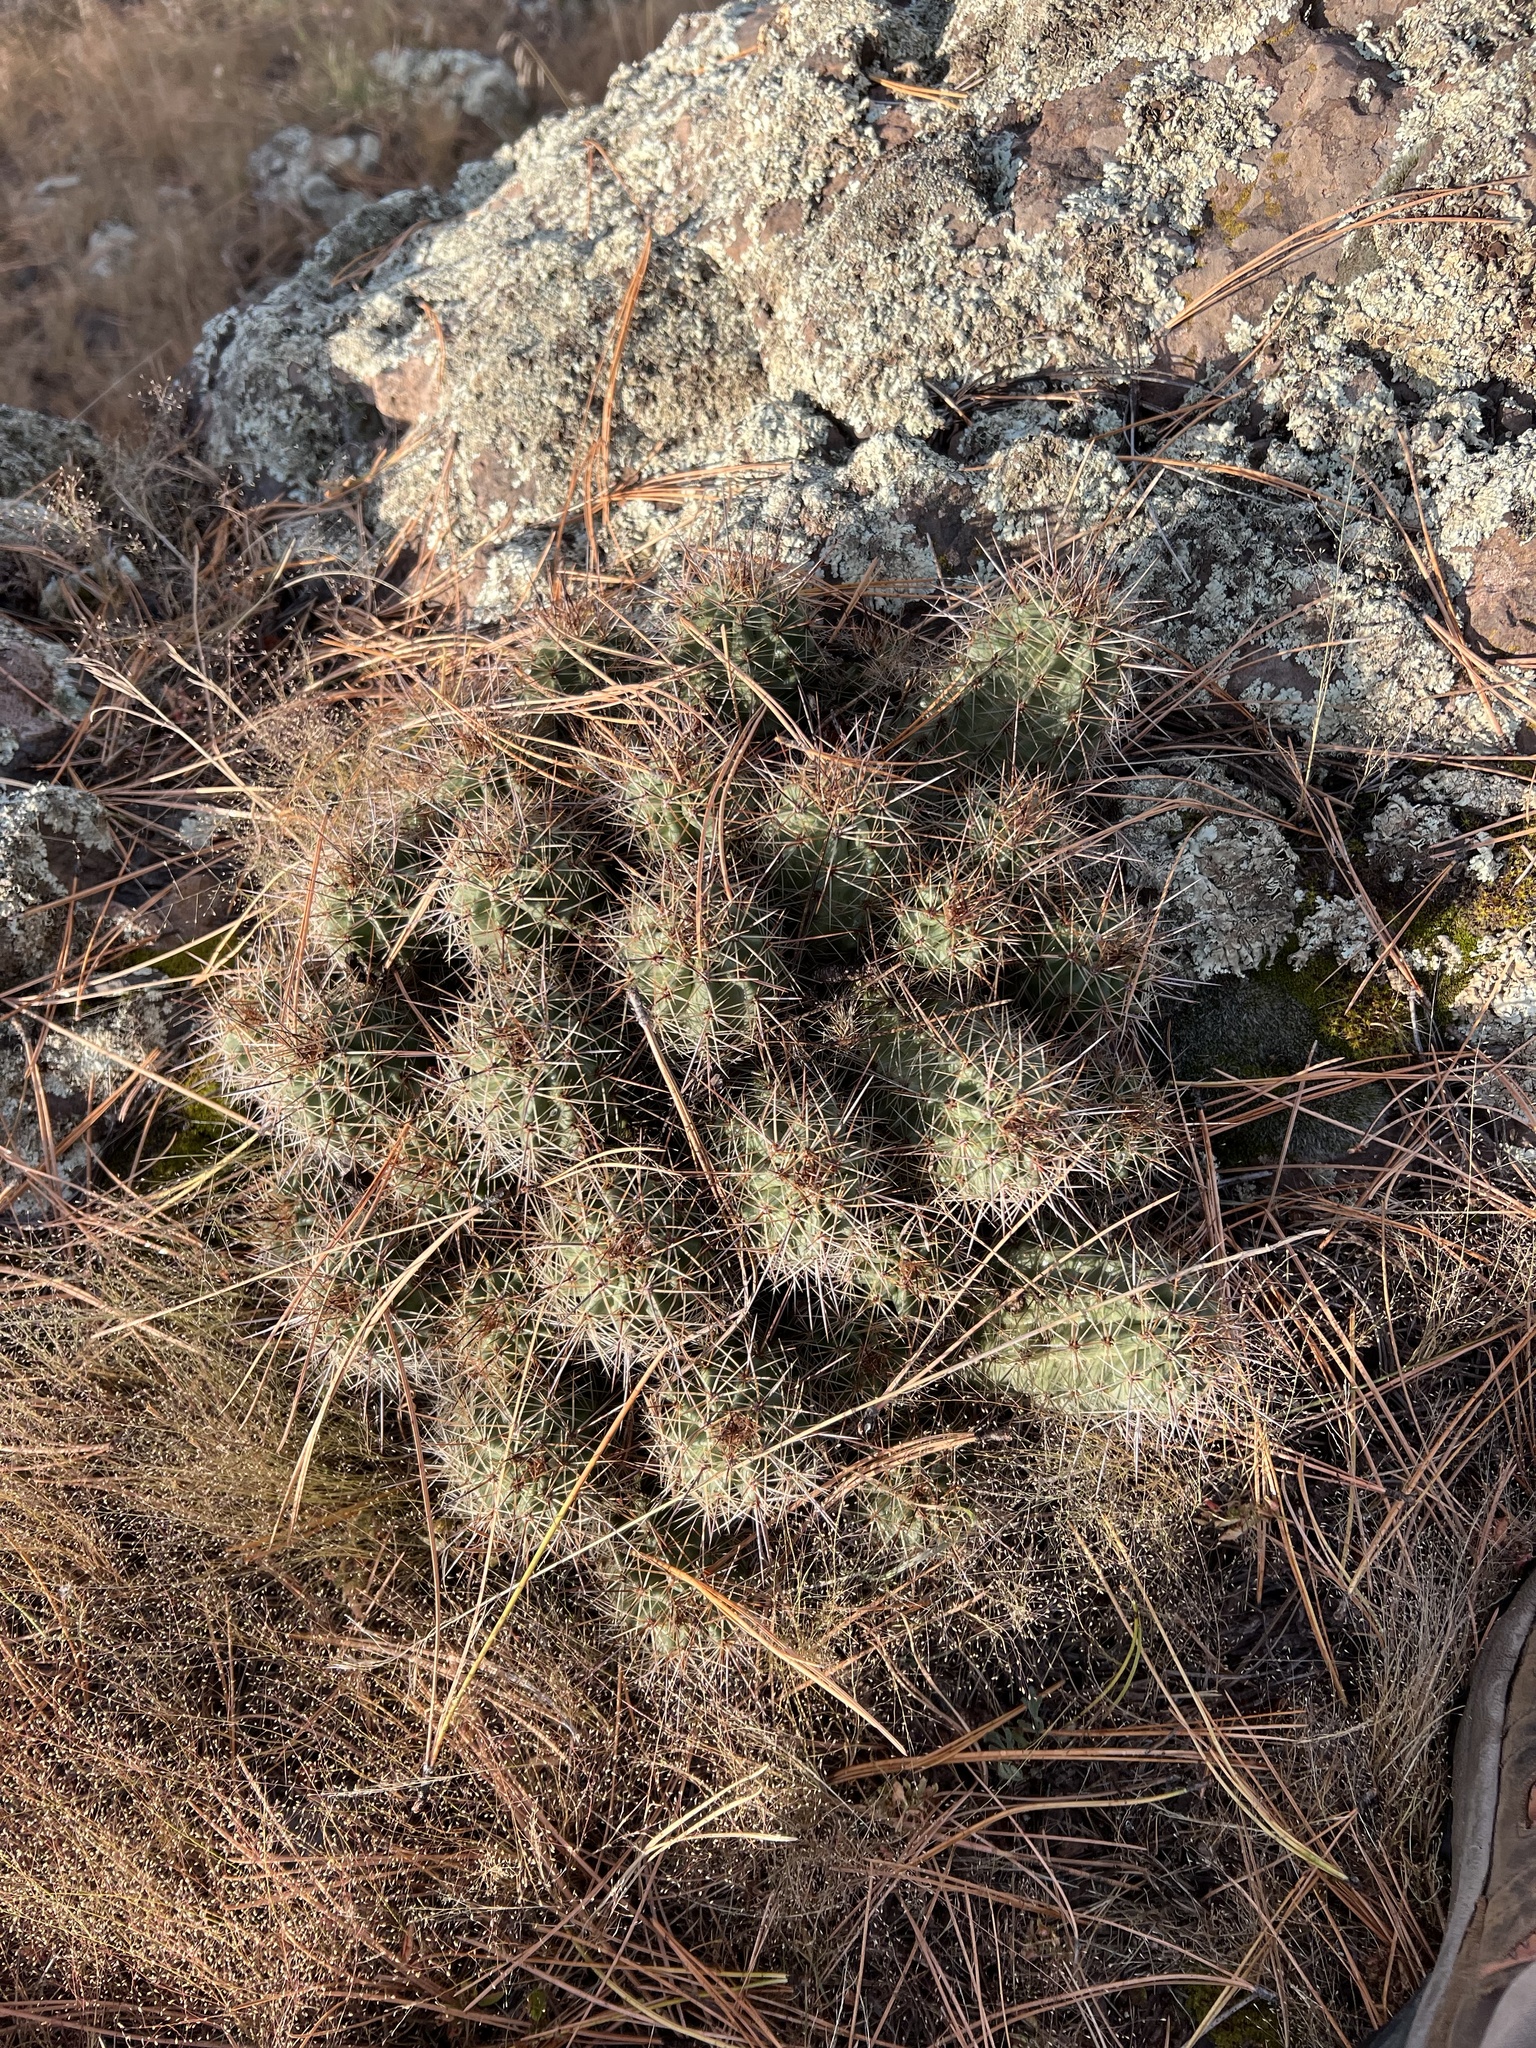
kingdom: Plantae
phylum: Tracheophyta
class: Magnoliopsida
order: Caryophyllales
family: Cactaceae
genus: Echinocereus
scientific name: Echinocereus bakeri
